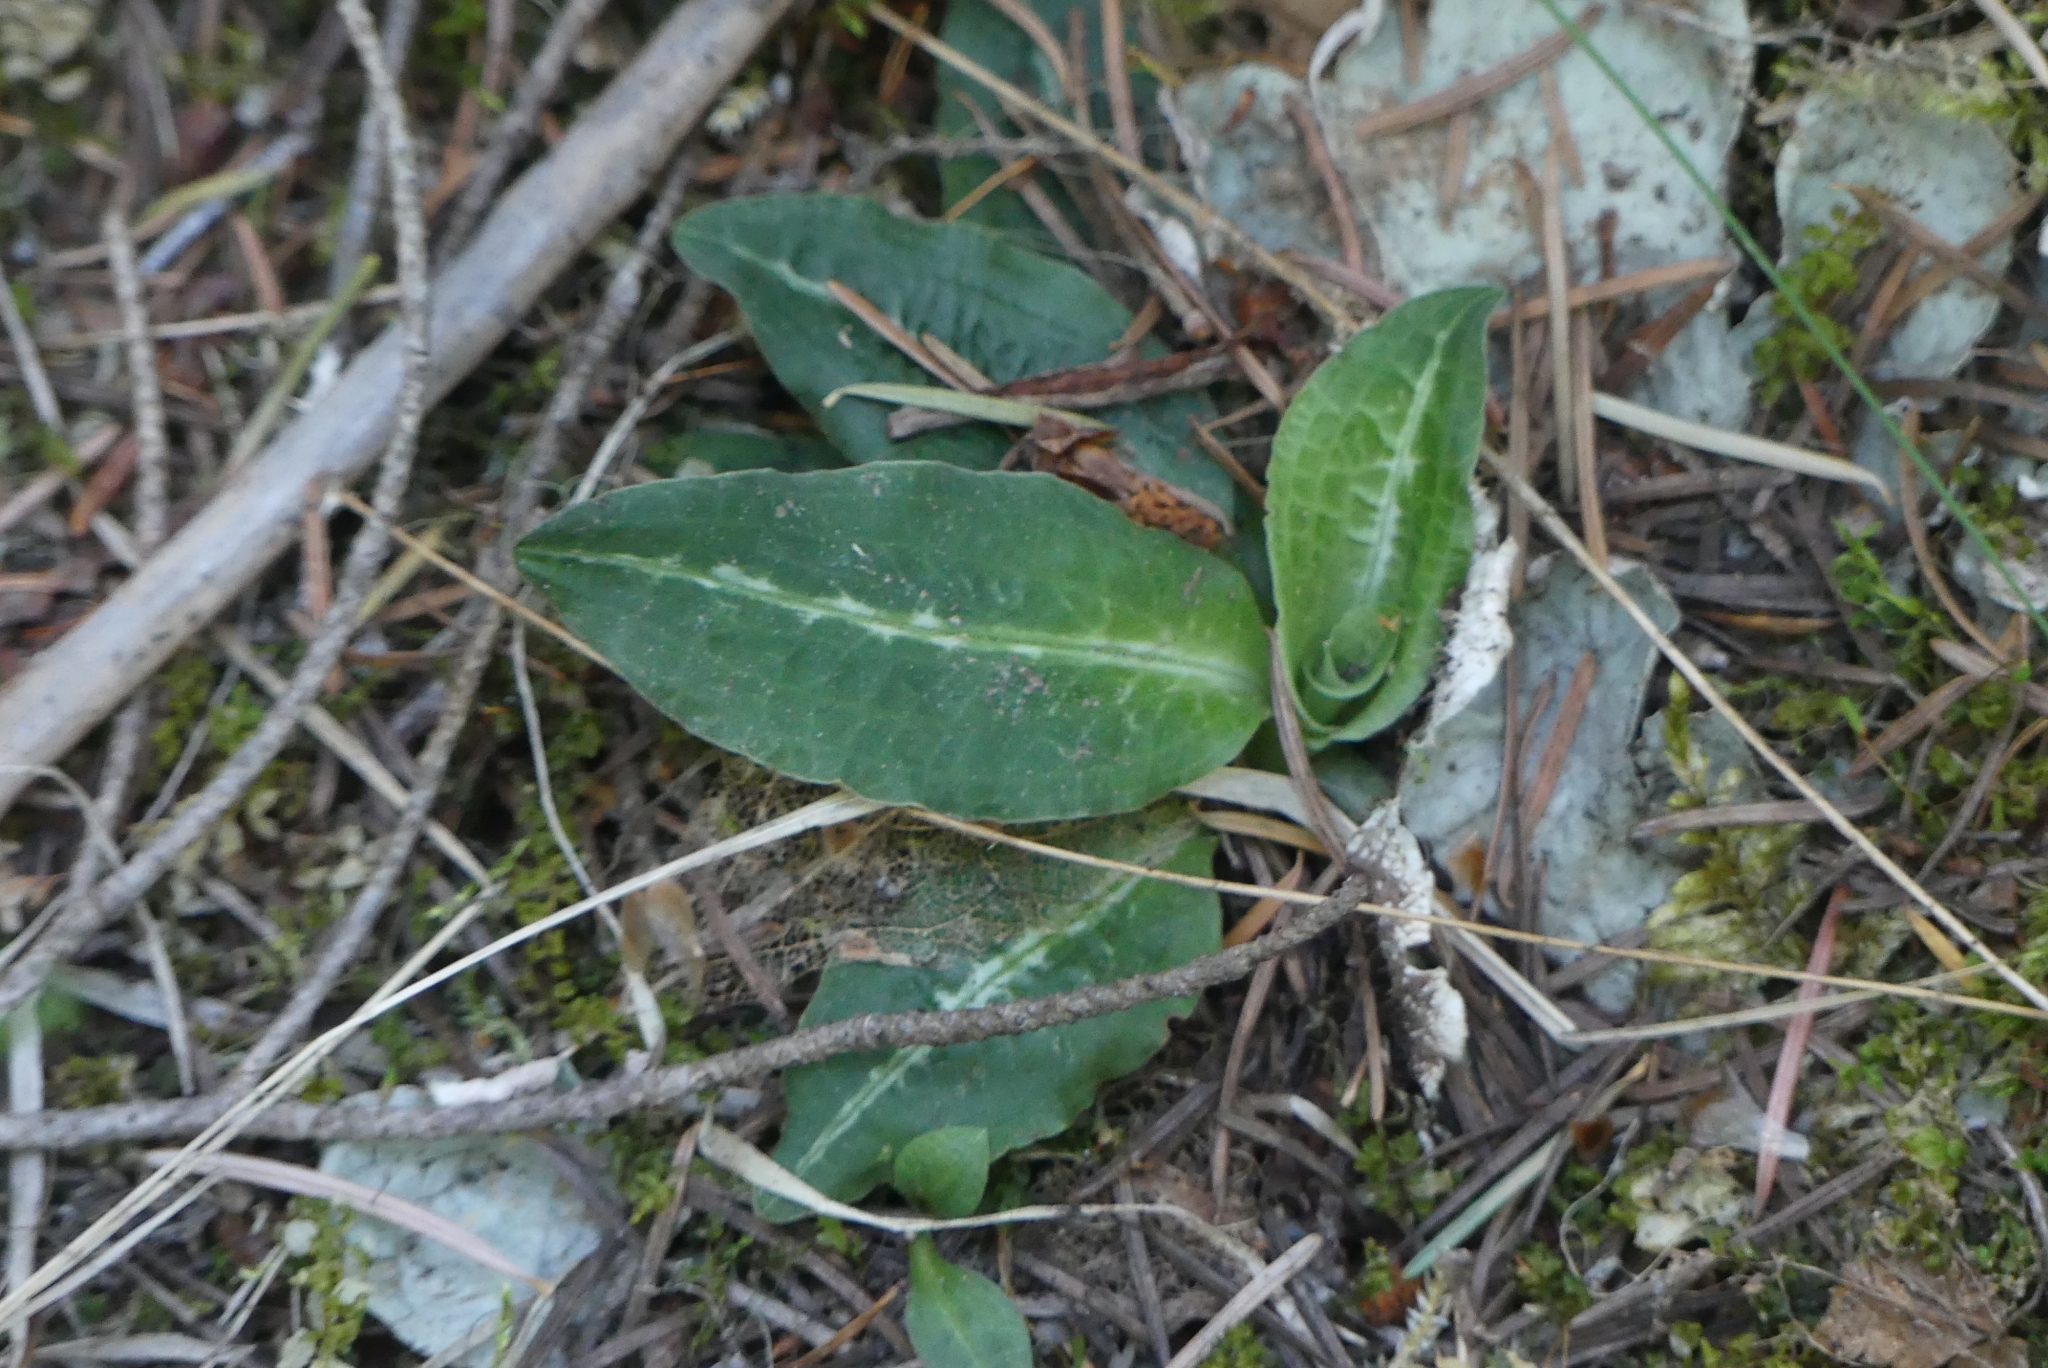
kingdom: Plantae
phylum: Tracheophyta
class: Liliopsida
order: Asparagales
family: Orchidaceae
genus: Goodyera
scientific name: Goodyera oblongifolia
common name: Giant rattlesnake-plantain
